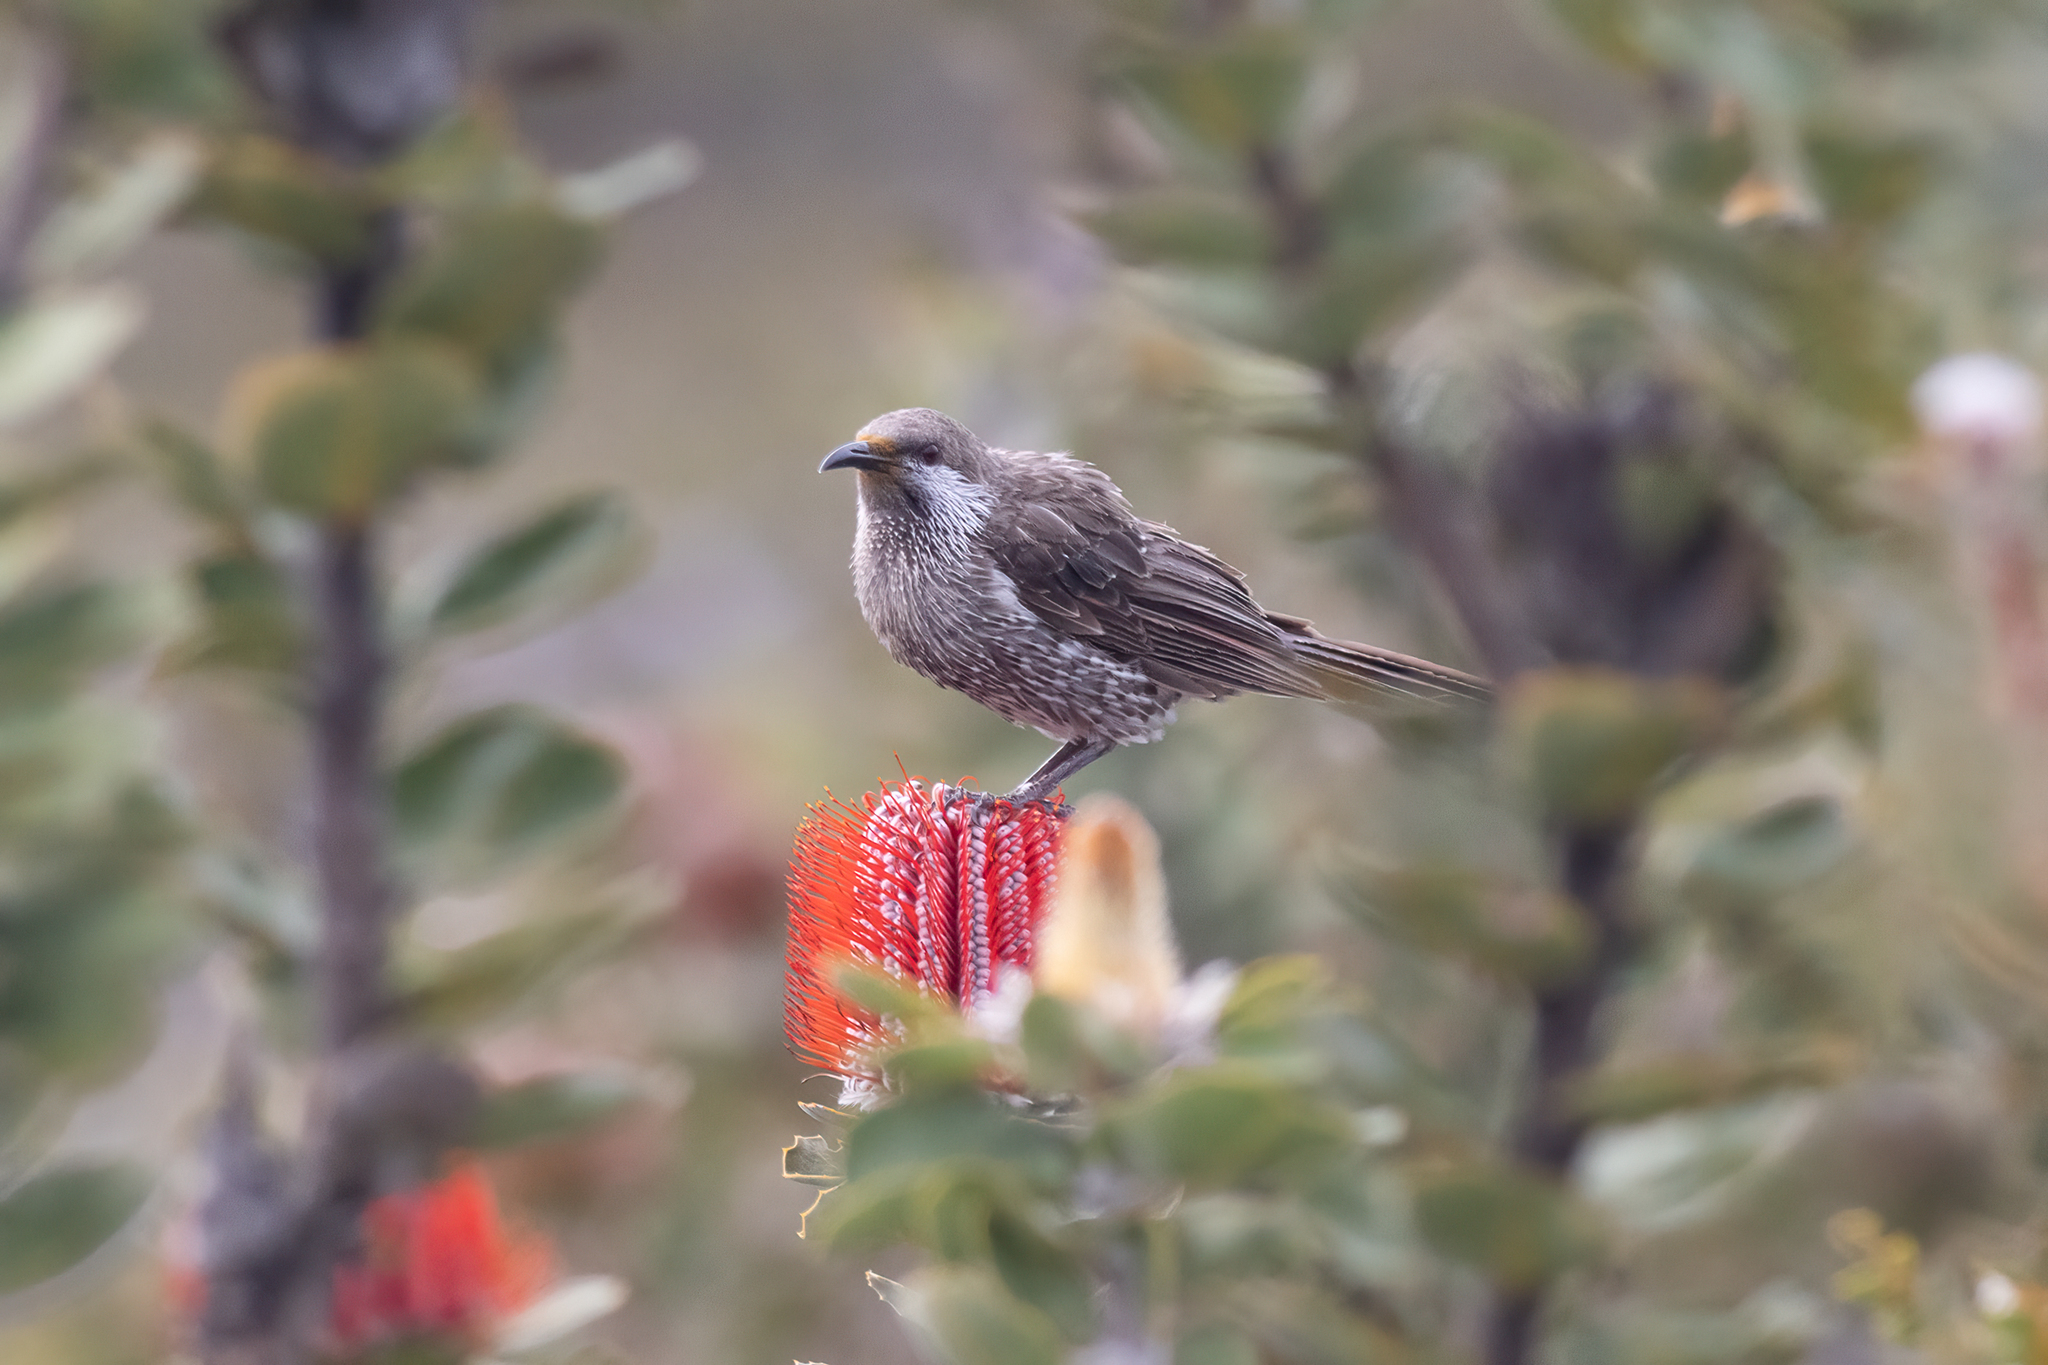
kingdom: Animalia
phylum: Chordata
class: Aves
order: Passeriformes
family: Meliphagidae
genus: Anthochaera
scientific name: Anthochaera lunulata
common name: Western wattlebird
